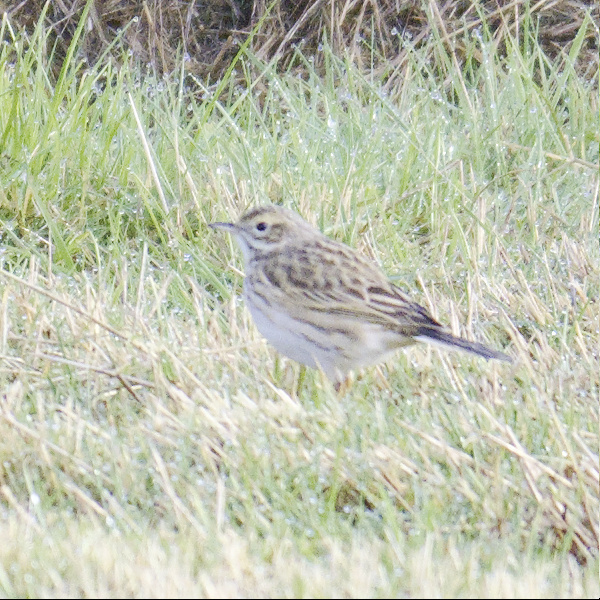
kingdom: Animalia
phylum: Chordata
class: Aves
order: Passeriformes
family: Motacillidae
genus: Anthus
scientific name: Anthus australis
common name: Australian pipit
